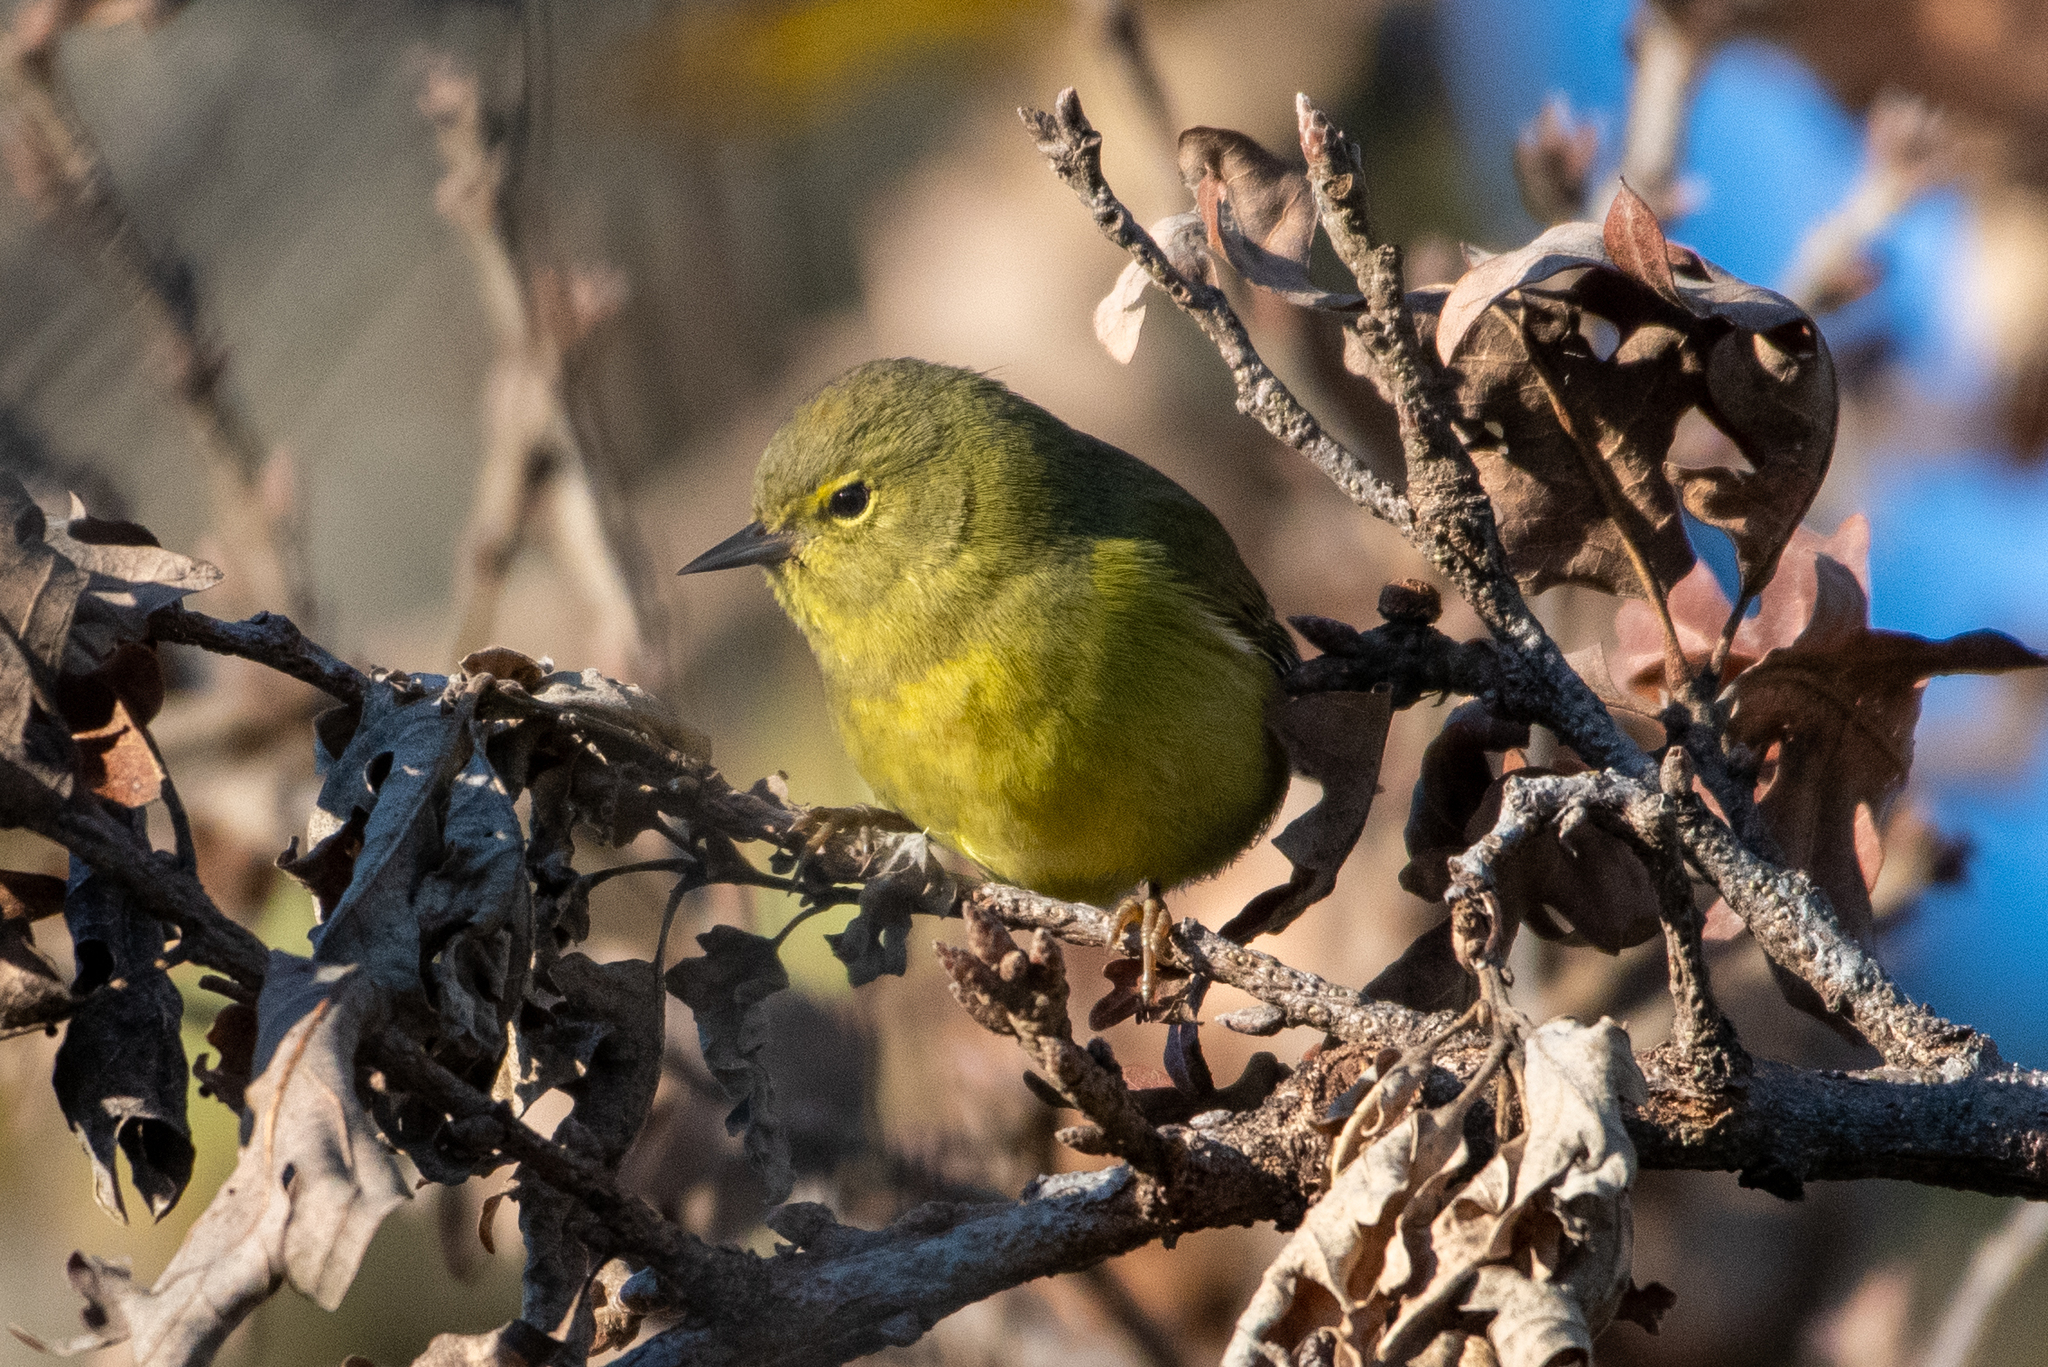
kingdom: Animalia
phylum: Chordata
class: Aves
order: Passeriformes
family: Parulidae
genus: Leiothlypis
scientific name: Leiothlypis celata
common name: Orange-crowned warbler
